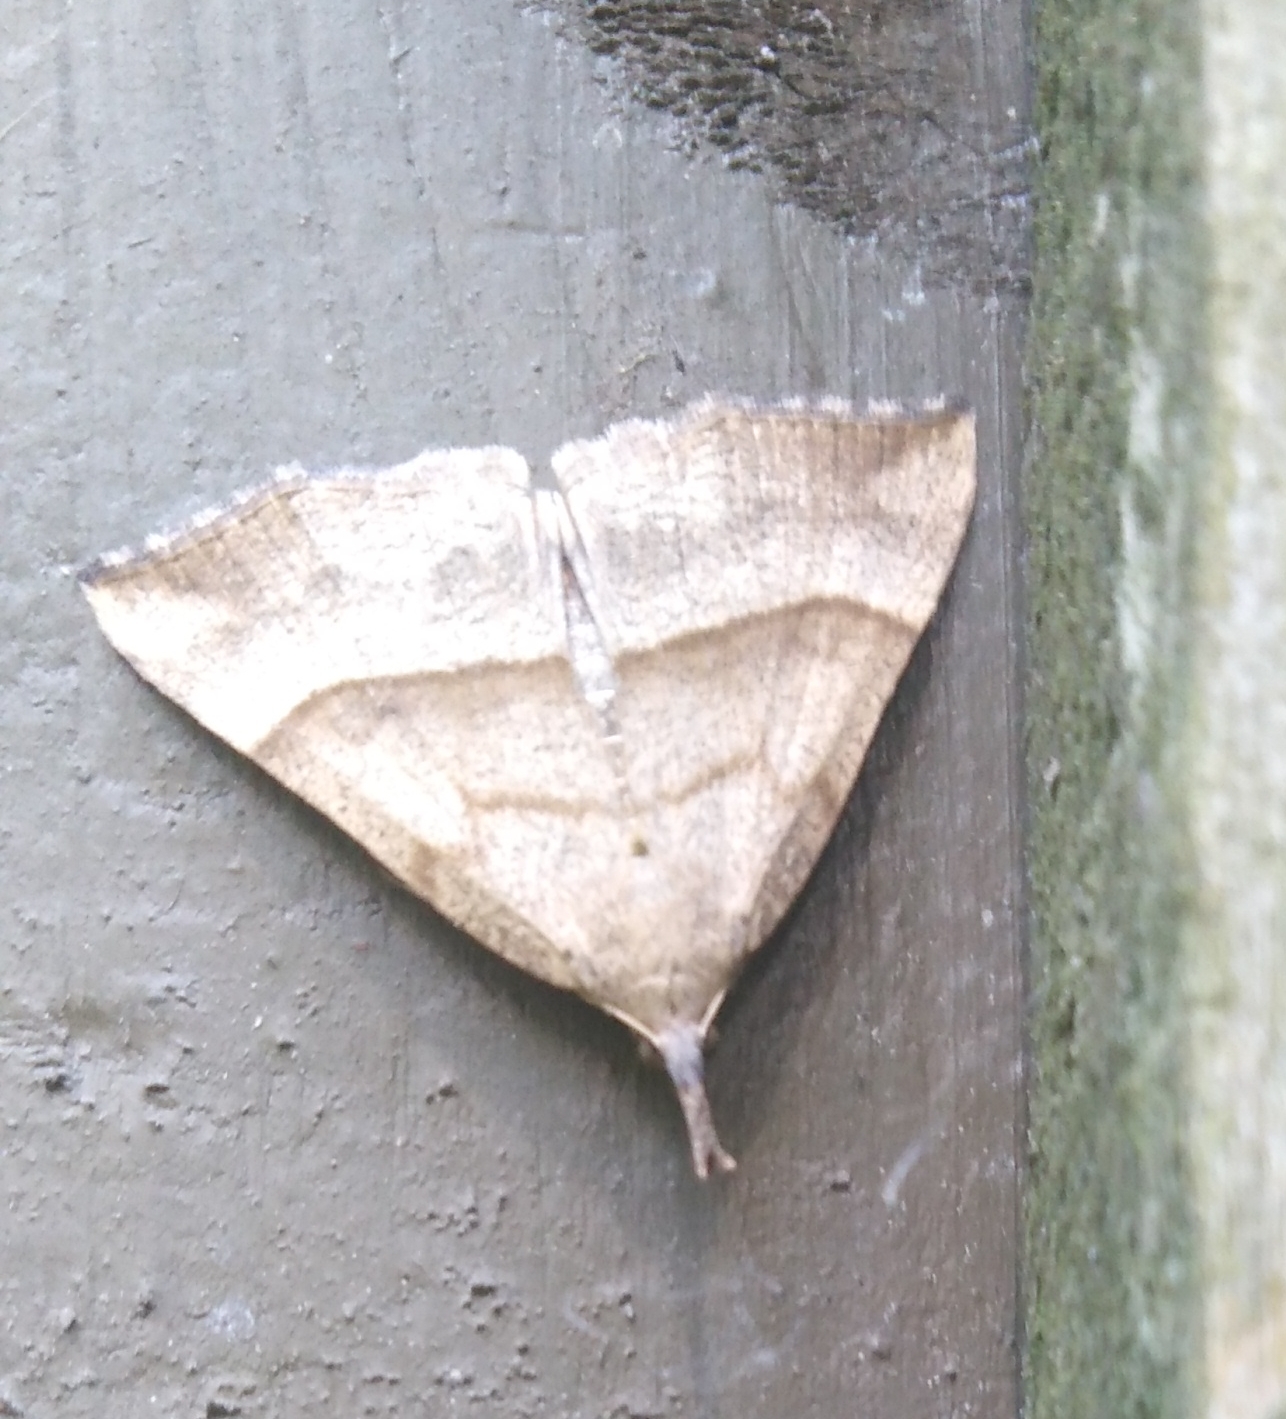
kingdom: Animalia
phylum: Arthropoda
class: Insecta
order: Lepidoptera
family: Erebidae
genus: Hypena
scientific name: Hypena proboscidalis
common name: Snout
